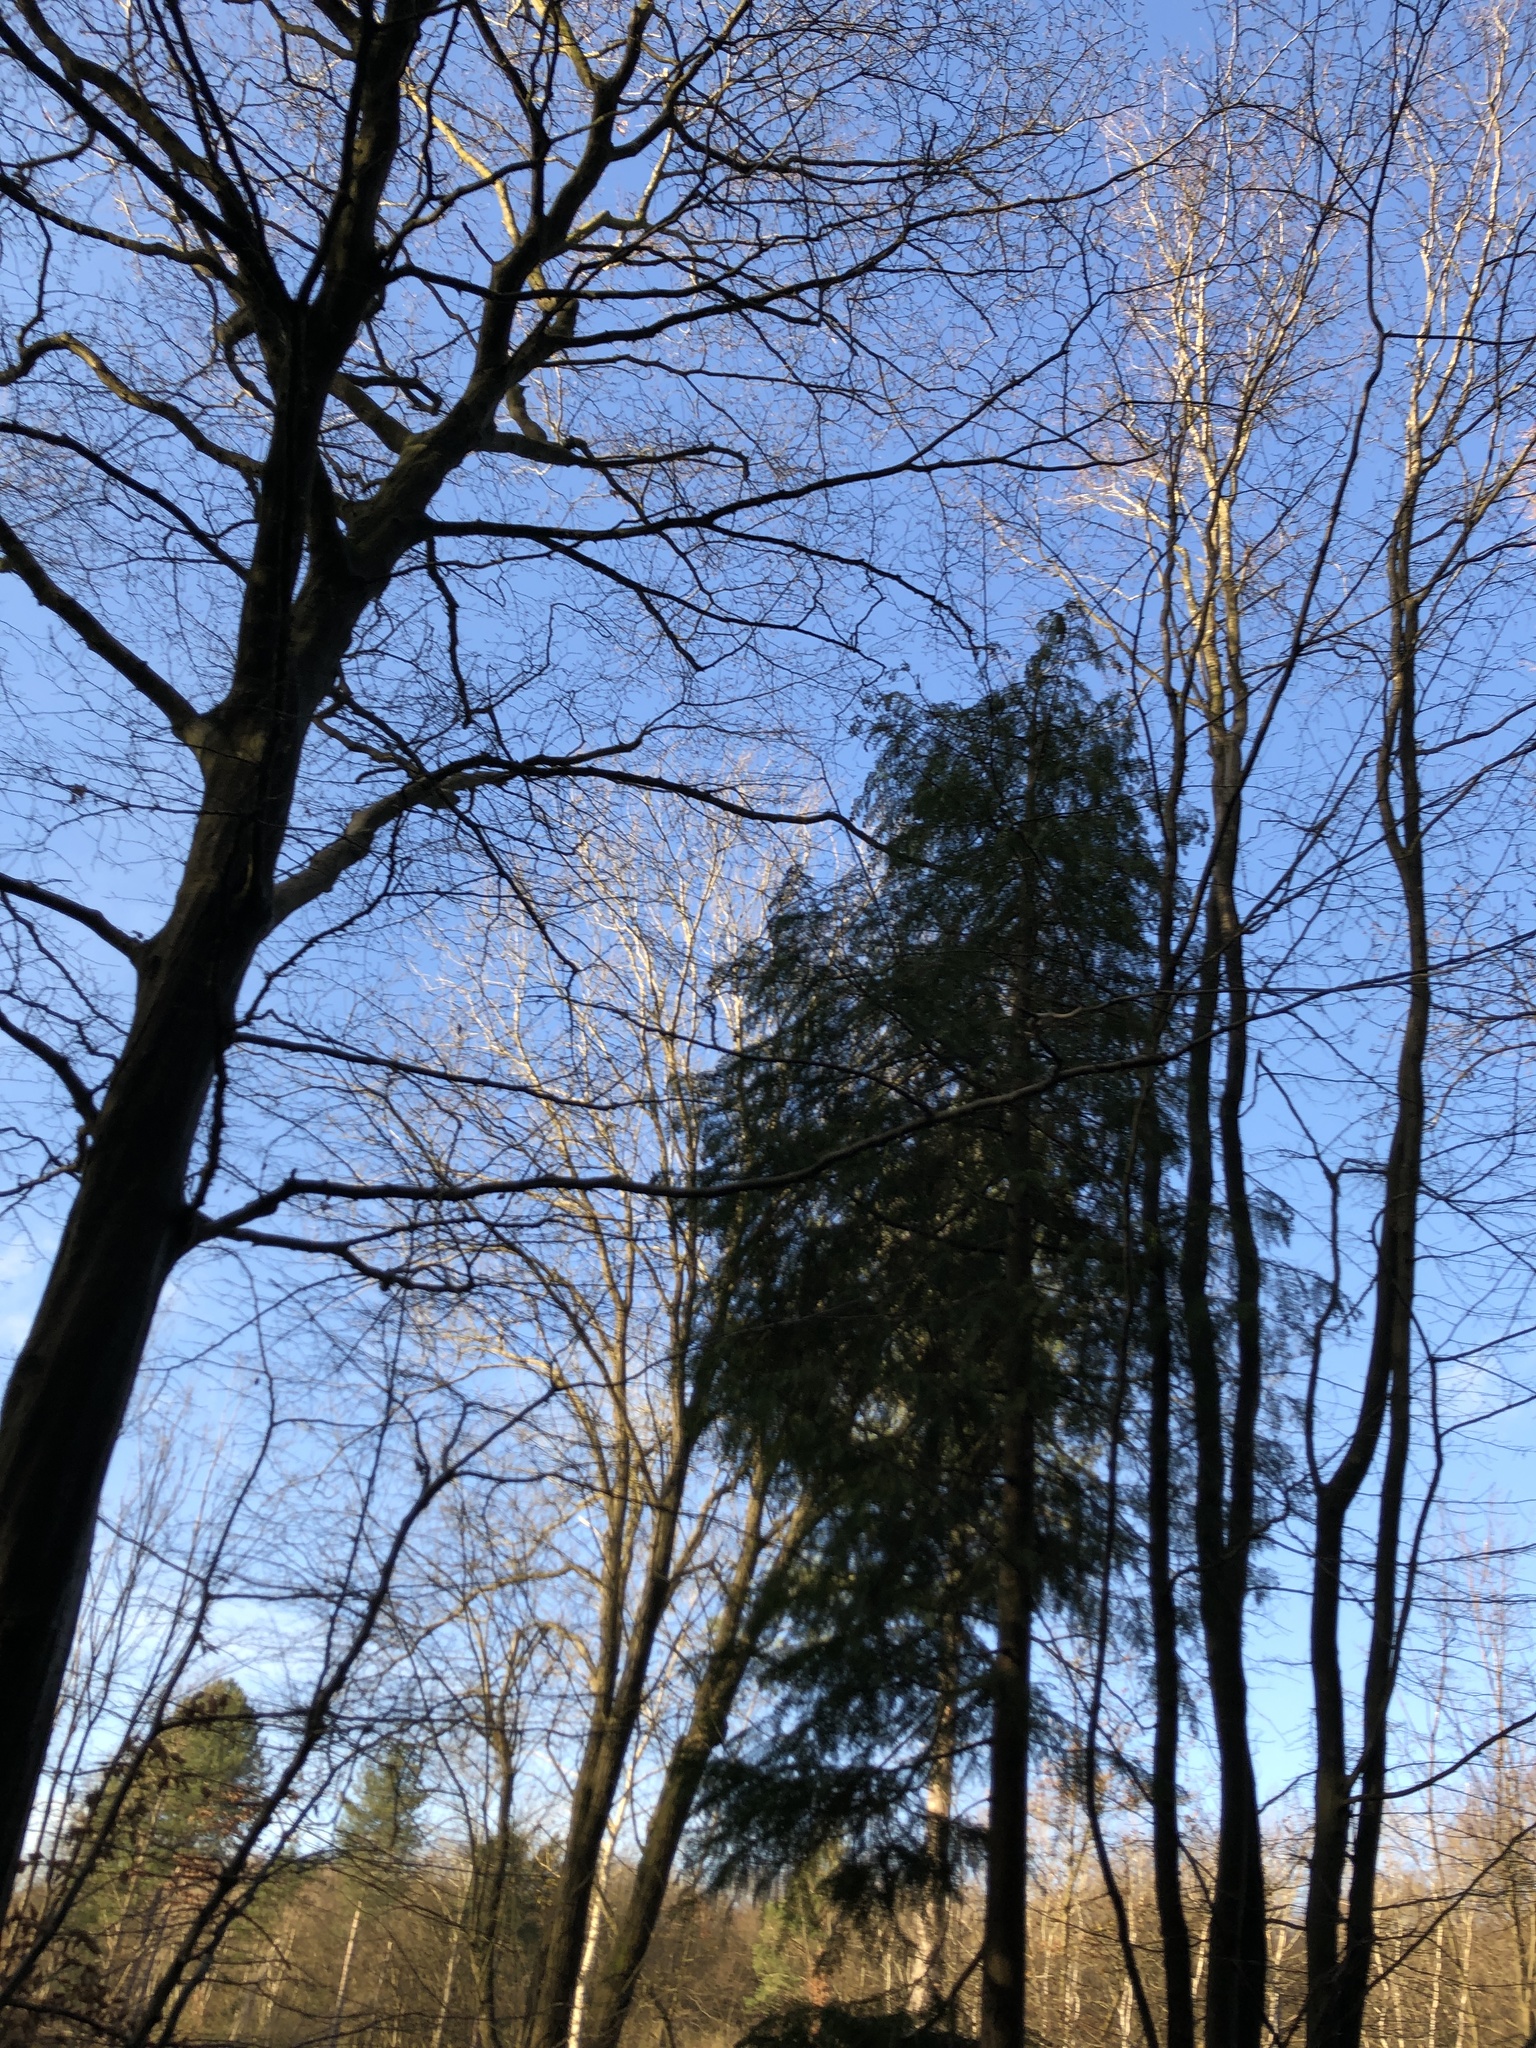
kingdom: Plantae
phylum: Bryophyta
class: Bryopsida
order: Bryales
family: Mniaceae
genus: Plagiomnium
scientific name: Plagiomnium undulatum
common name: Hart's-tongue thyme-moss
